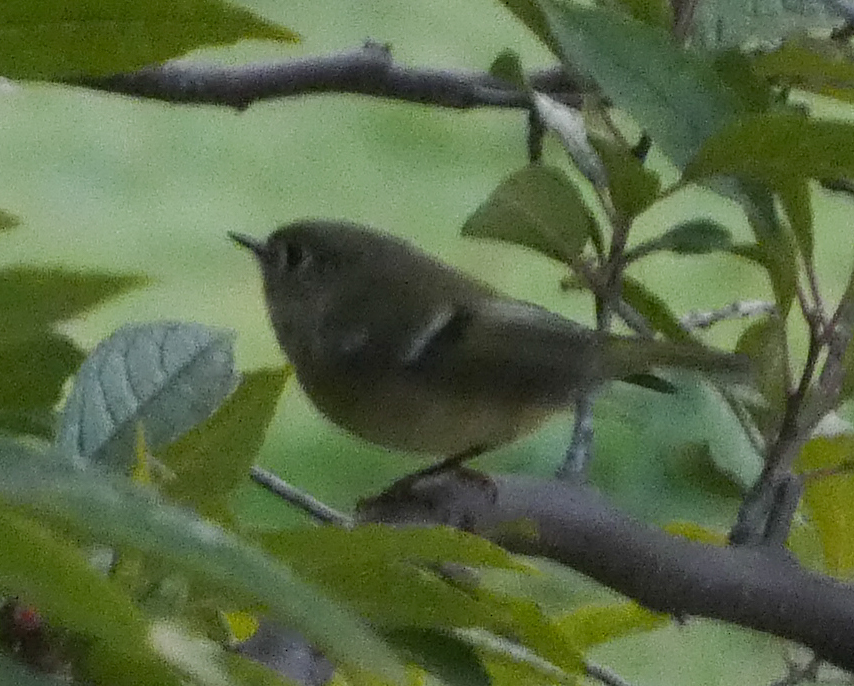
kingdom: Animalia
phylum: Chordata
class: Aves
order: Passeriformes
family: Regulidae
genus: Regulus
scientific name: Regulus calendula
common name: Ruby-crowned kinglet
